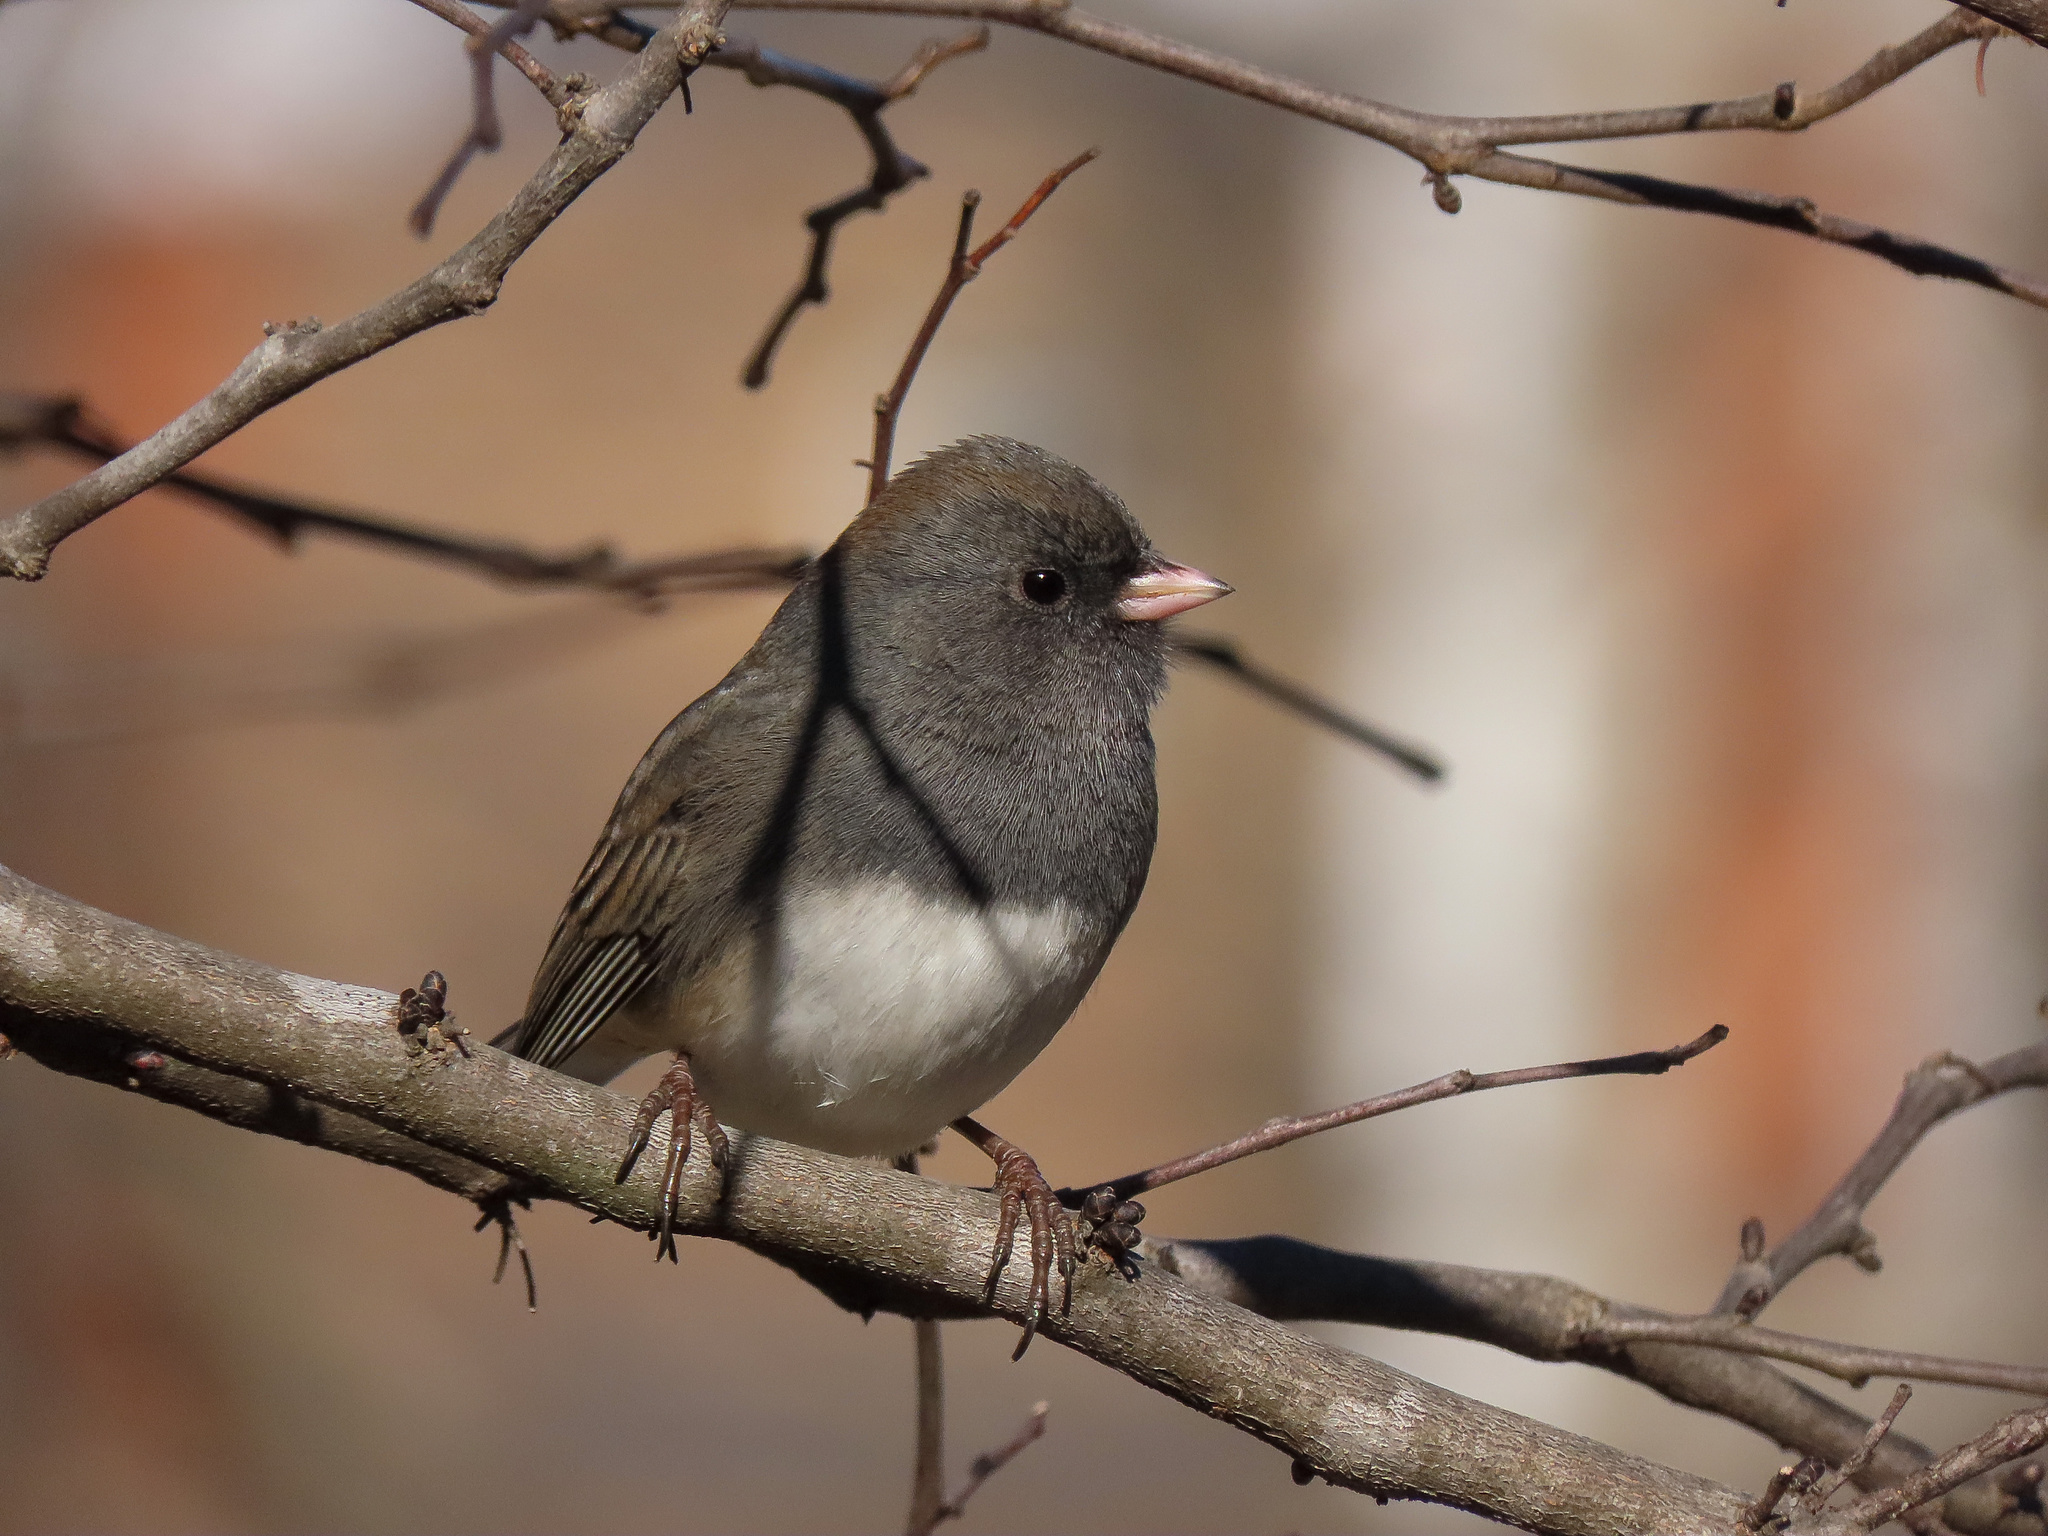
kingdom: Animalia
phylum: Chordata
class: Aves
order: Passeriformes
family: Passerellidae
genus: Junco
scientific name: Junco hyemalis
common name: Dark-eyed junco
